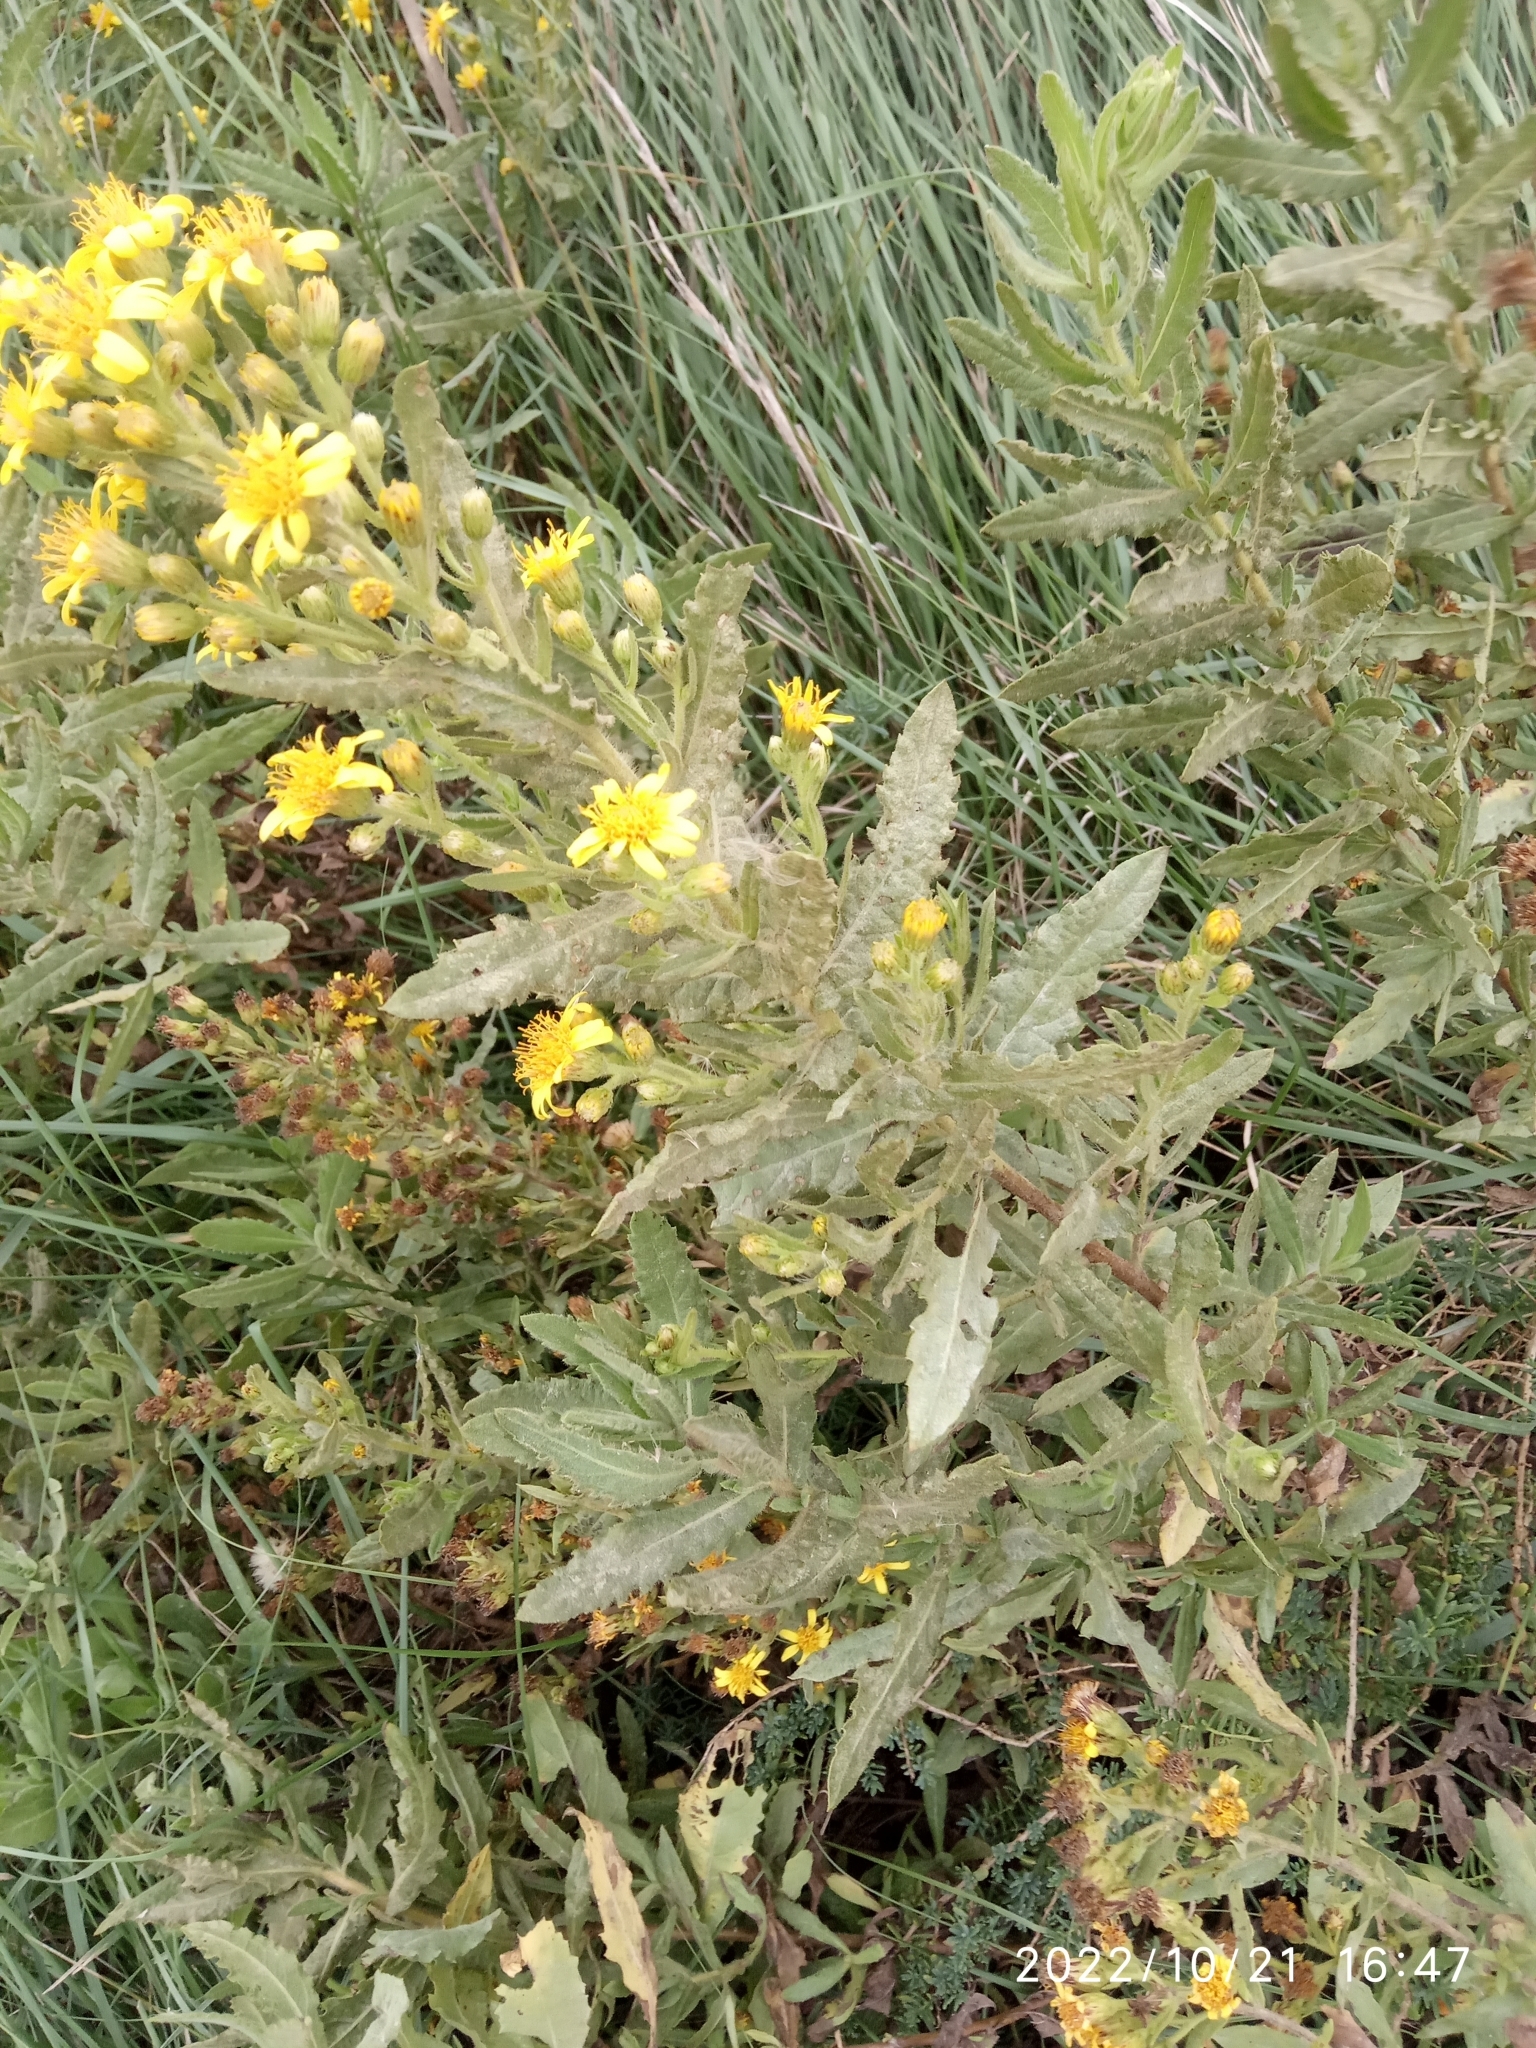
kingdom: Plantae
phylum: Tracheophyta
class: Magnoliopsida
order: Asterales
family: Asteraceae
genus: Dittrichia
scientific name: Dittrichia viscosa
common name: Woody fleabane
